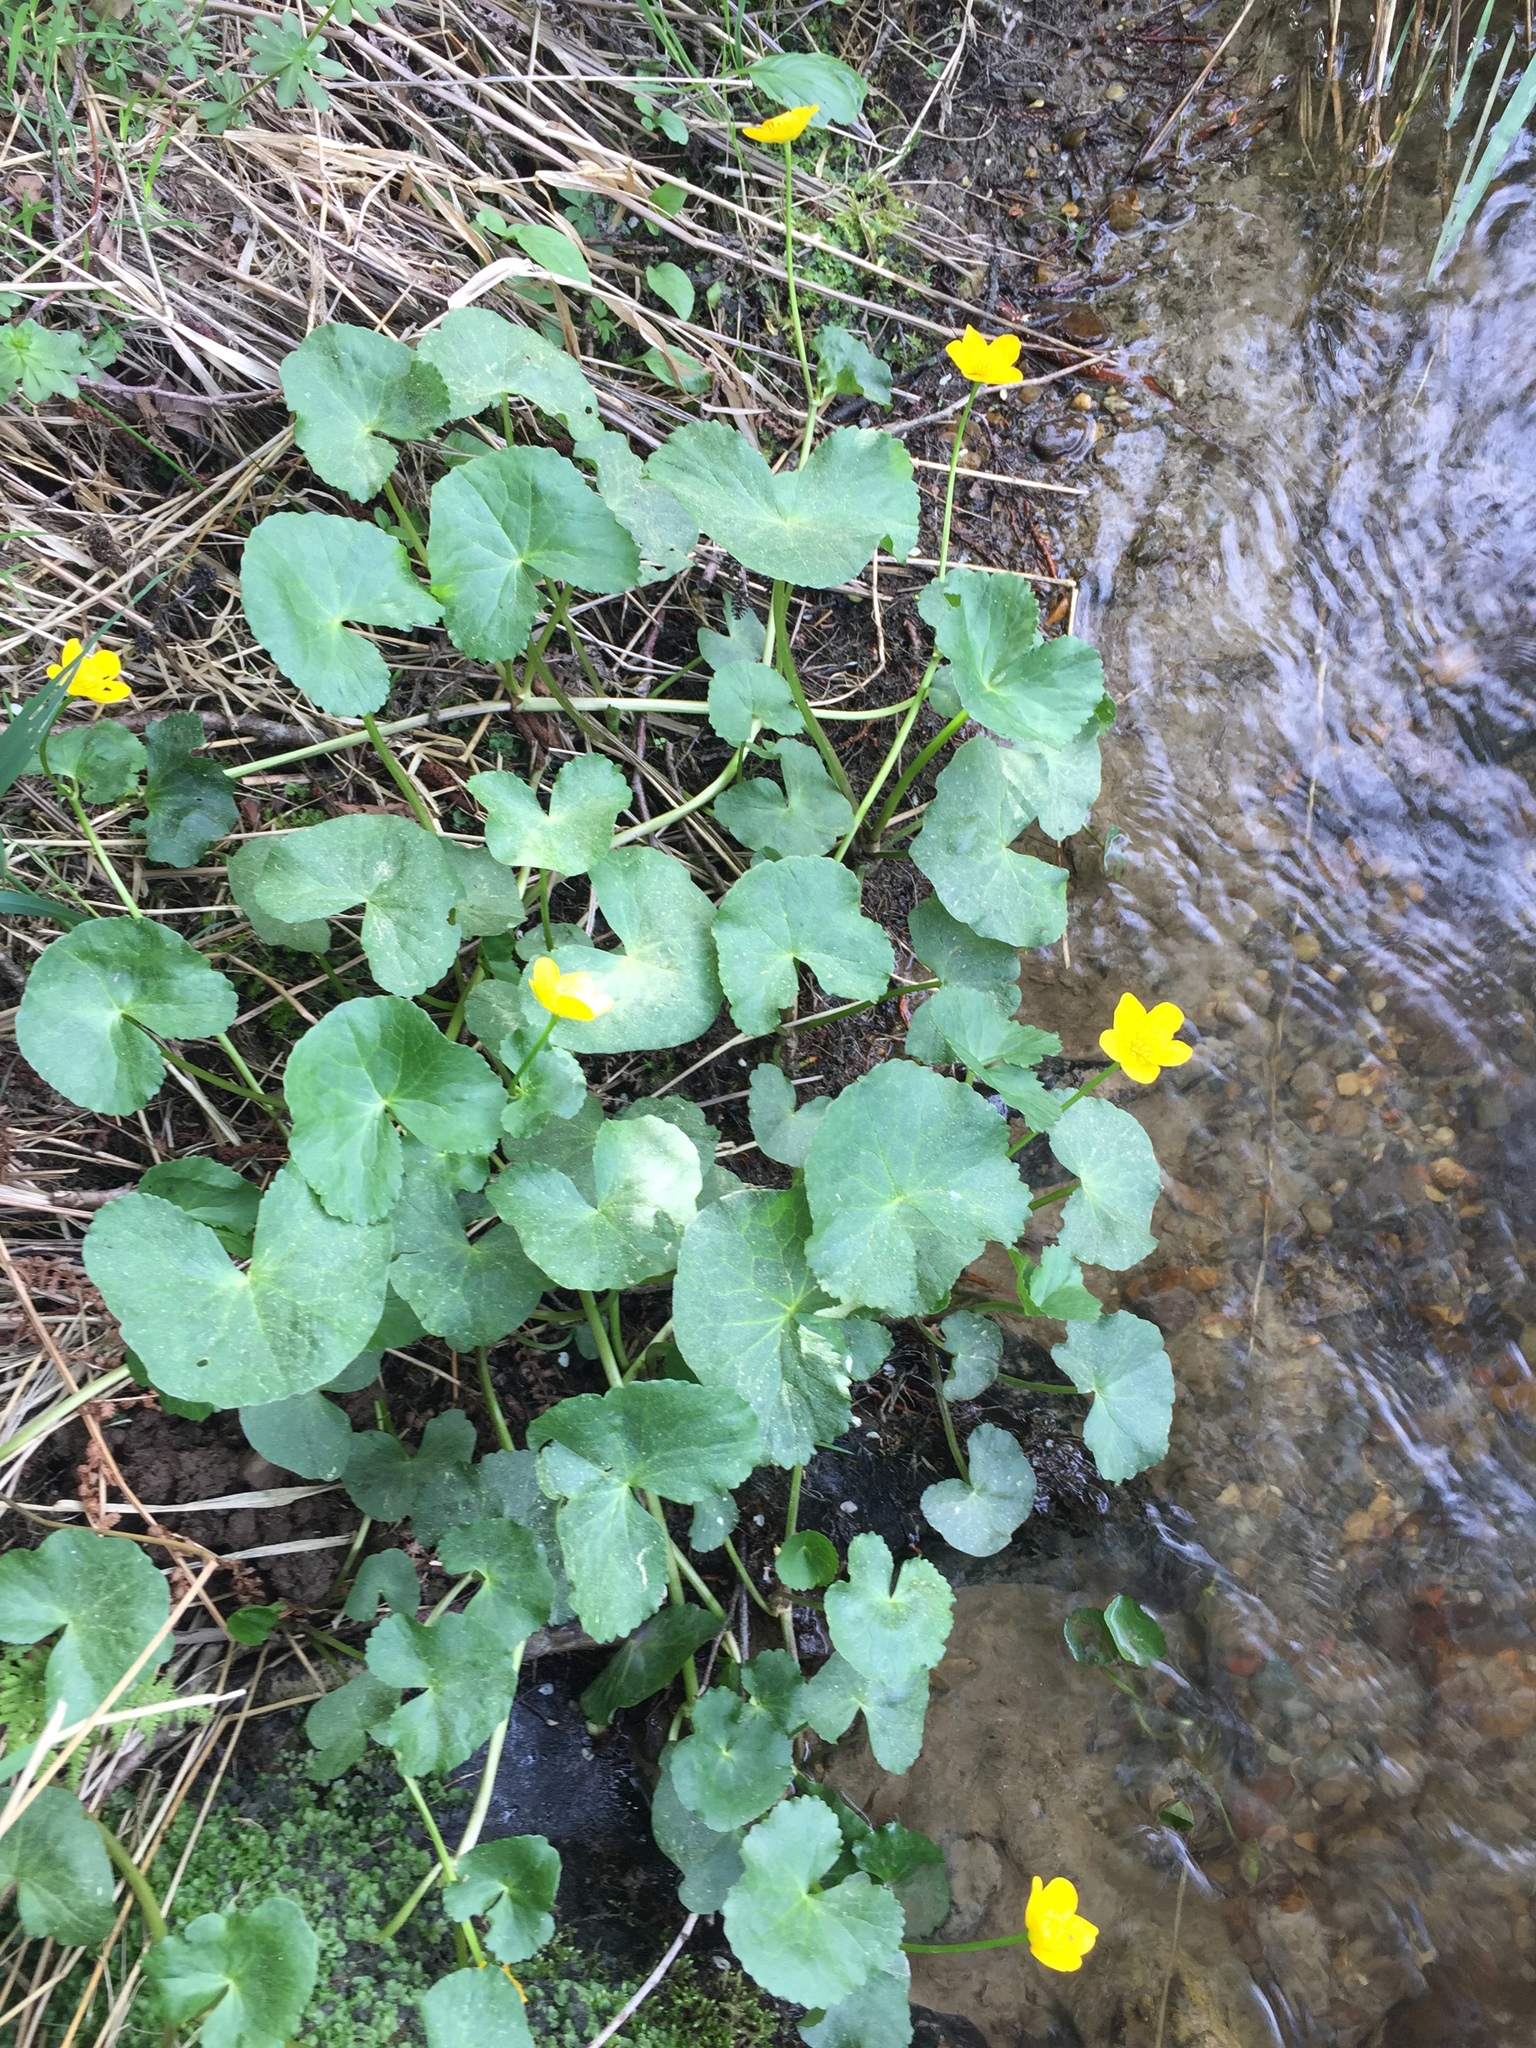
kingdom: Plantae
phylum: Tracheophyta
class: Magnoliopsida
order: Ranunculales
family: Ranunculaceae
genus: Caltha
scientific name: Caltha palustris
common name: Marsh marigold
